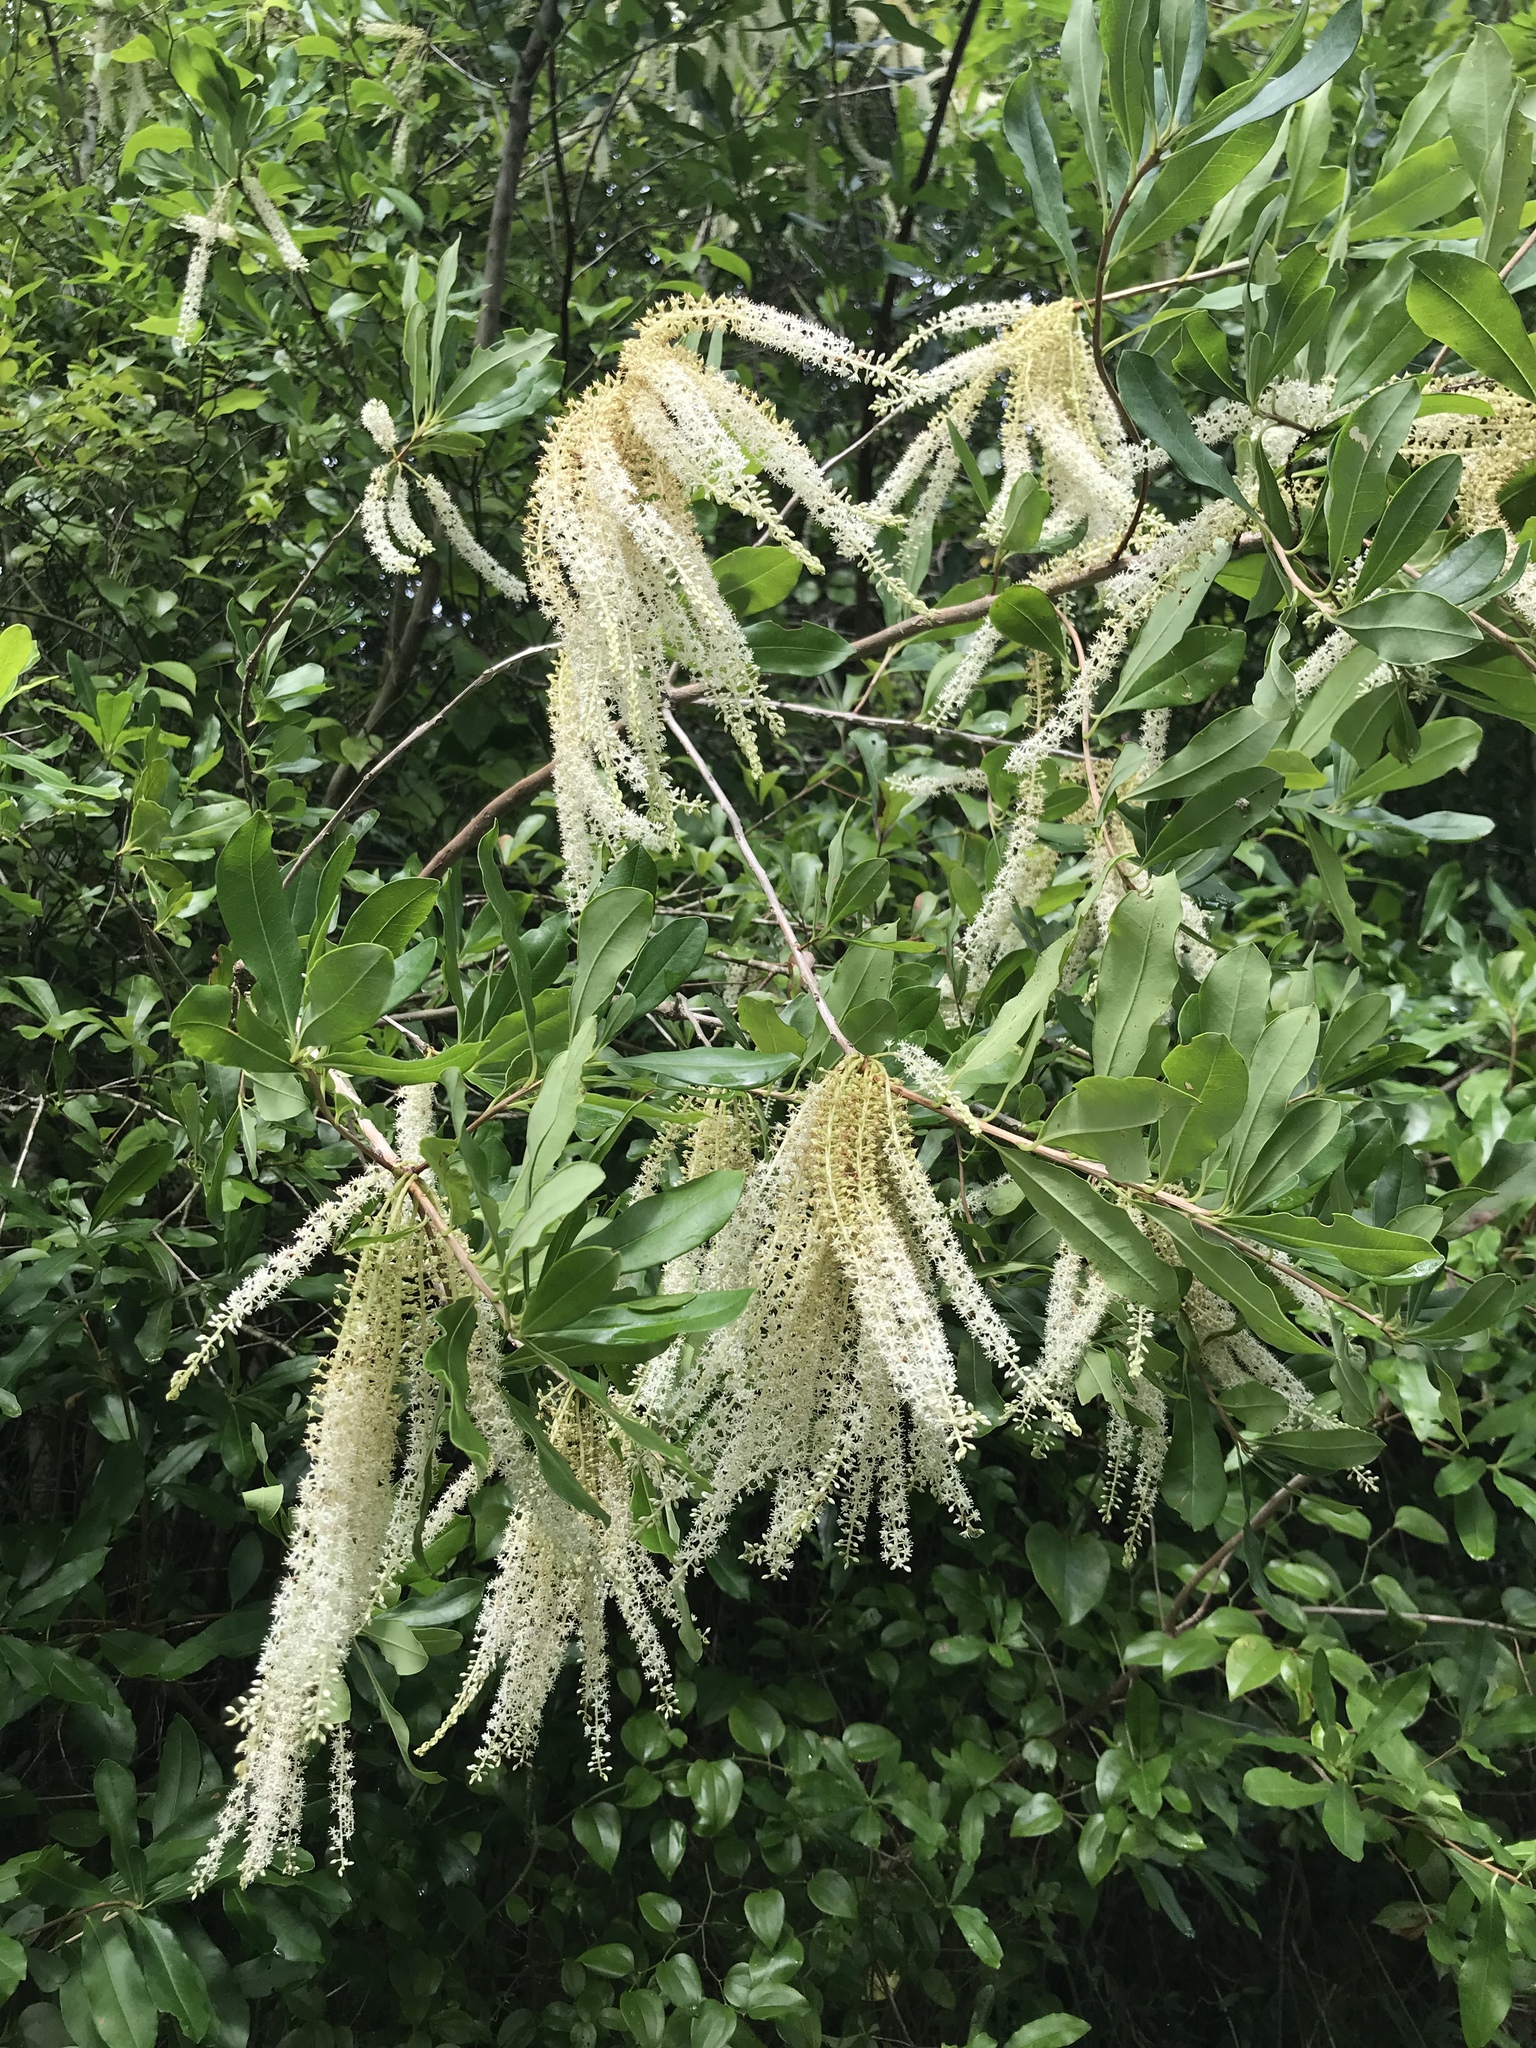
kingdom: Plantae
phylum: Tracheophyta
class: Magnoliopsida
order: Ericales
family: Cyrillaceae
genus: Cyrilla
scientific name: Cyrilla racemiflora
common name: Black titi
